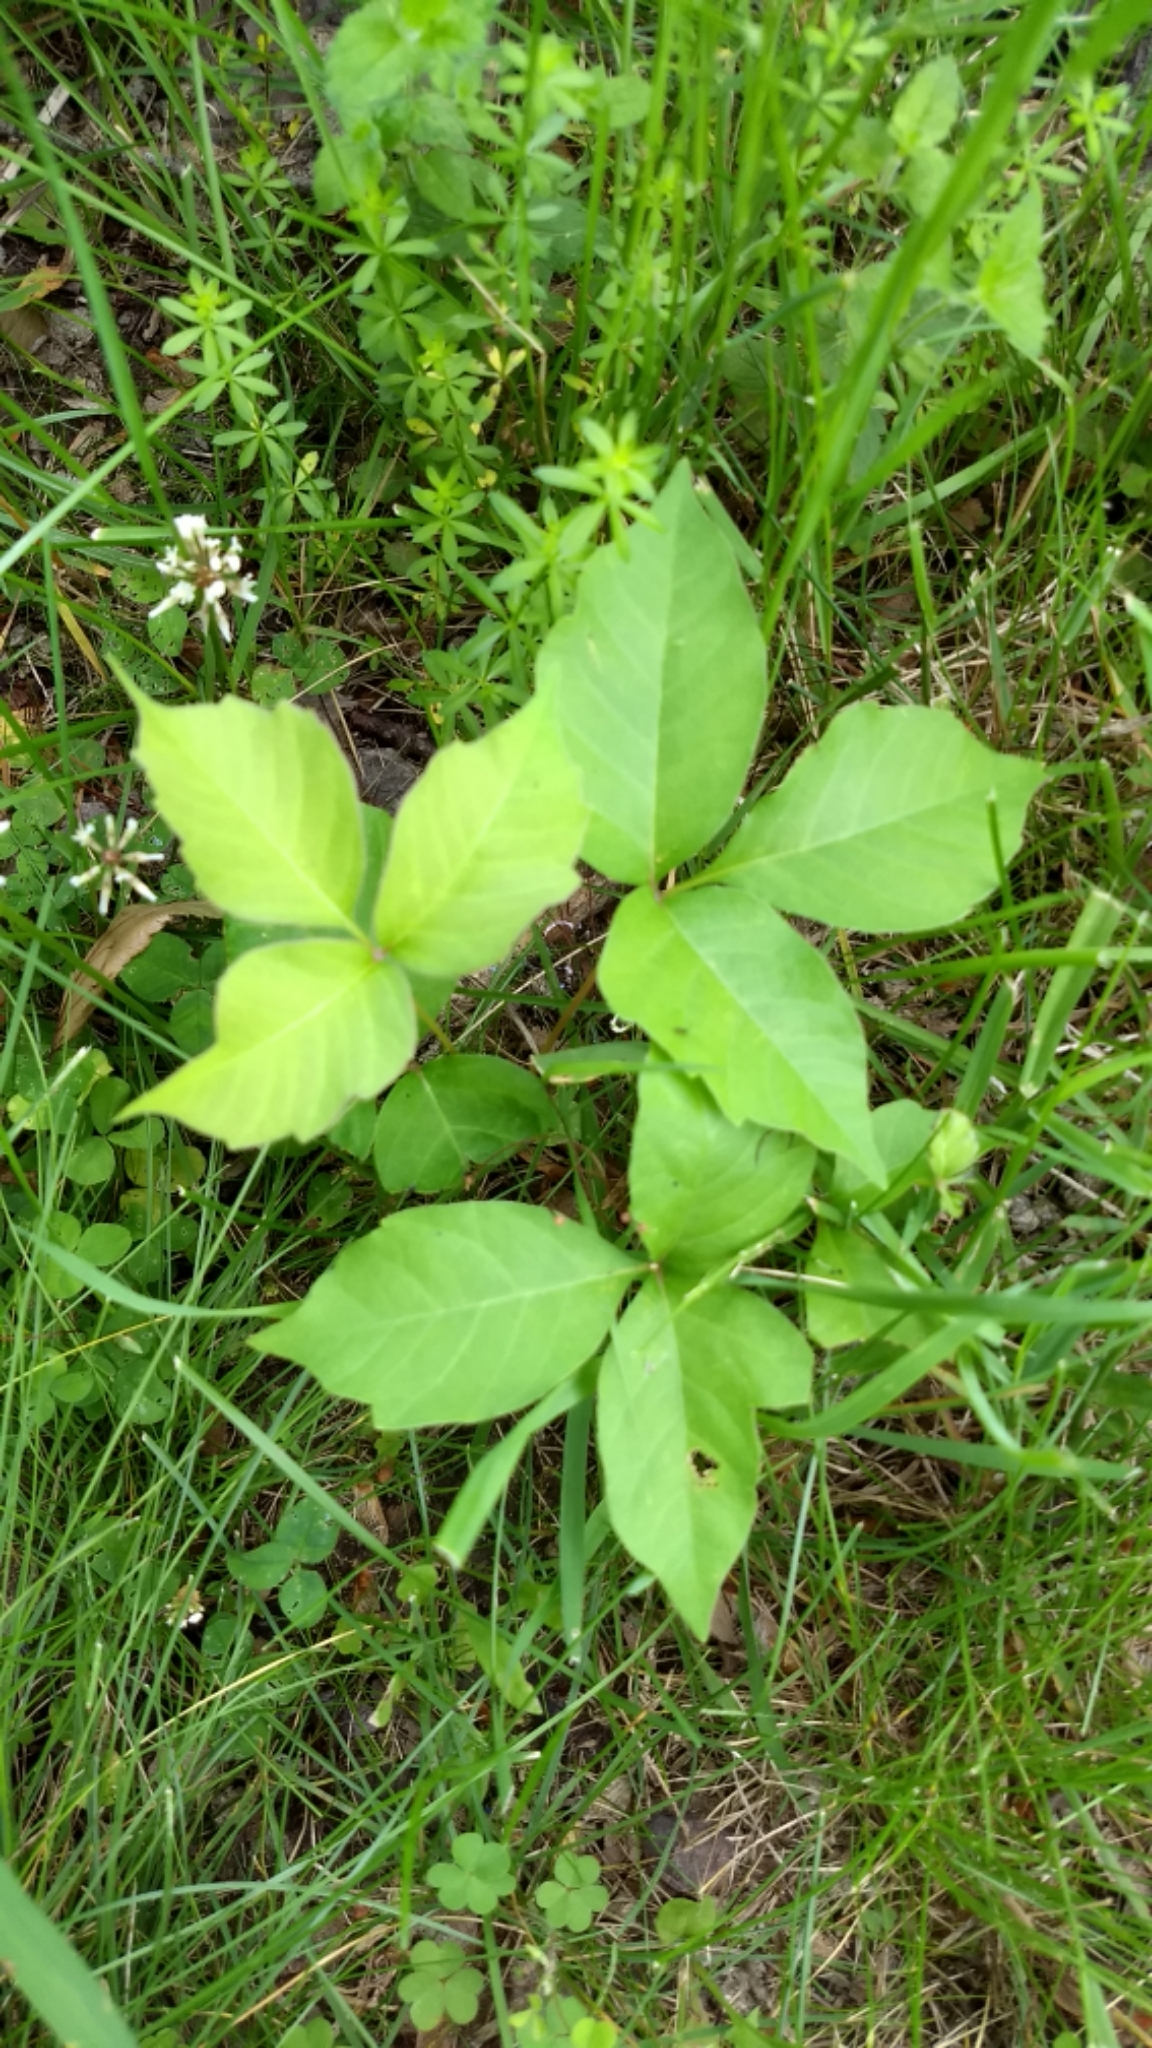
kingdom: Plantae
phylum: Tracheophyta
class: Magnoliopsida
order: Sapindales
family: Anacardiaceae
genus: Toxicodendron
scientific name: Toxicodendron radicans
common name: Poison ivy
